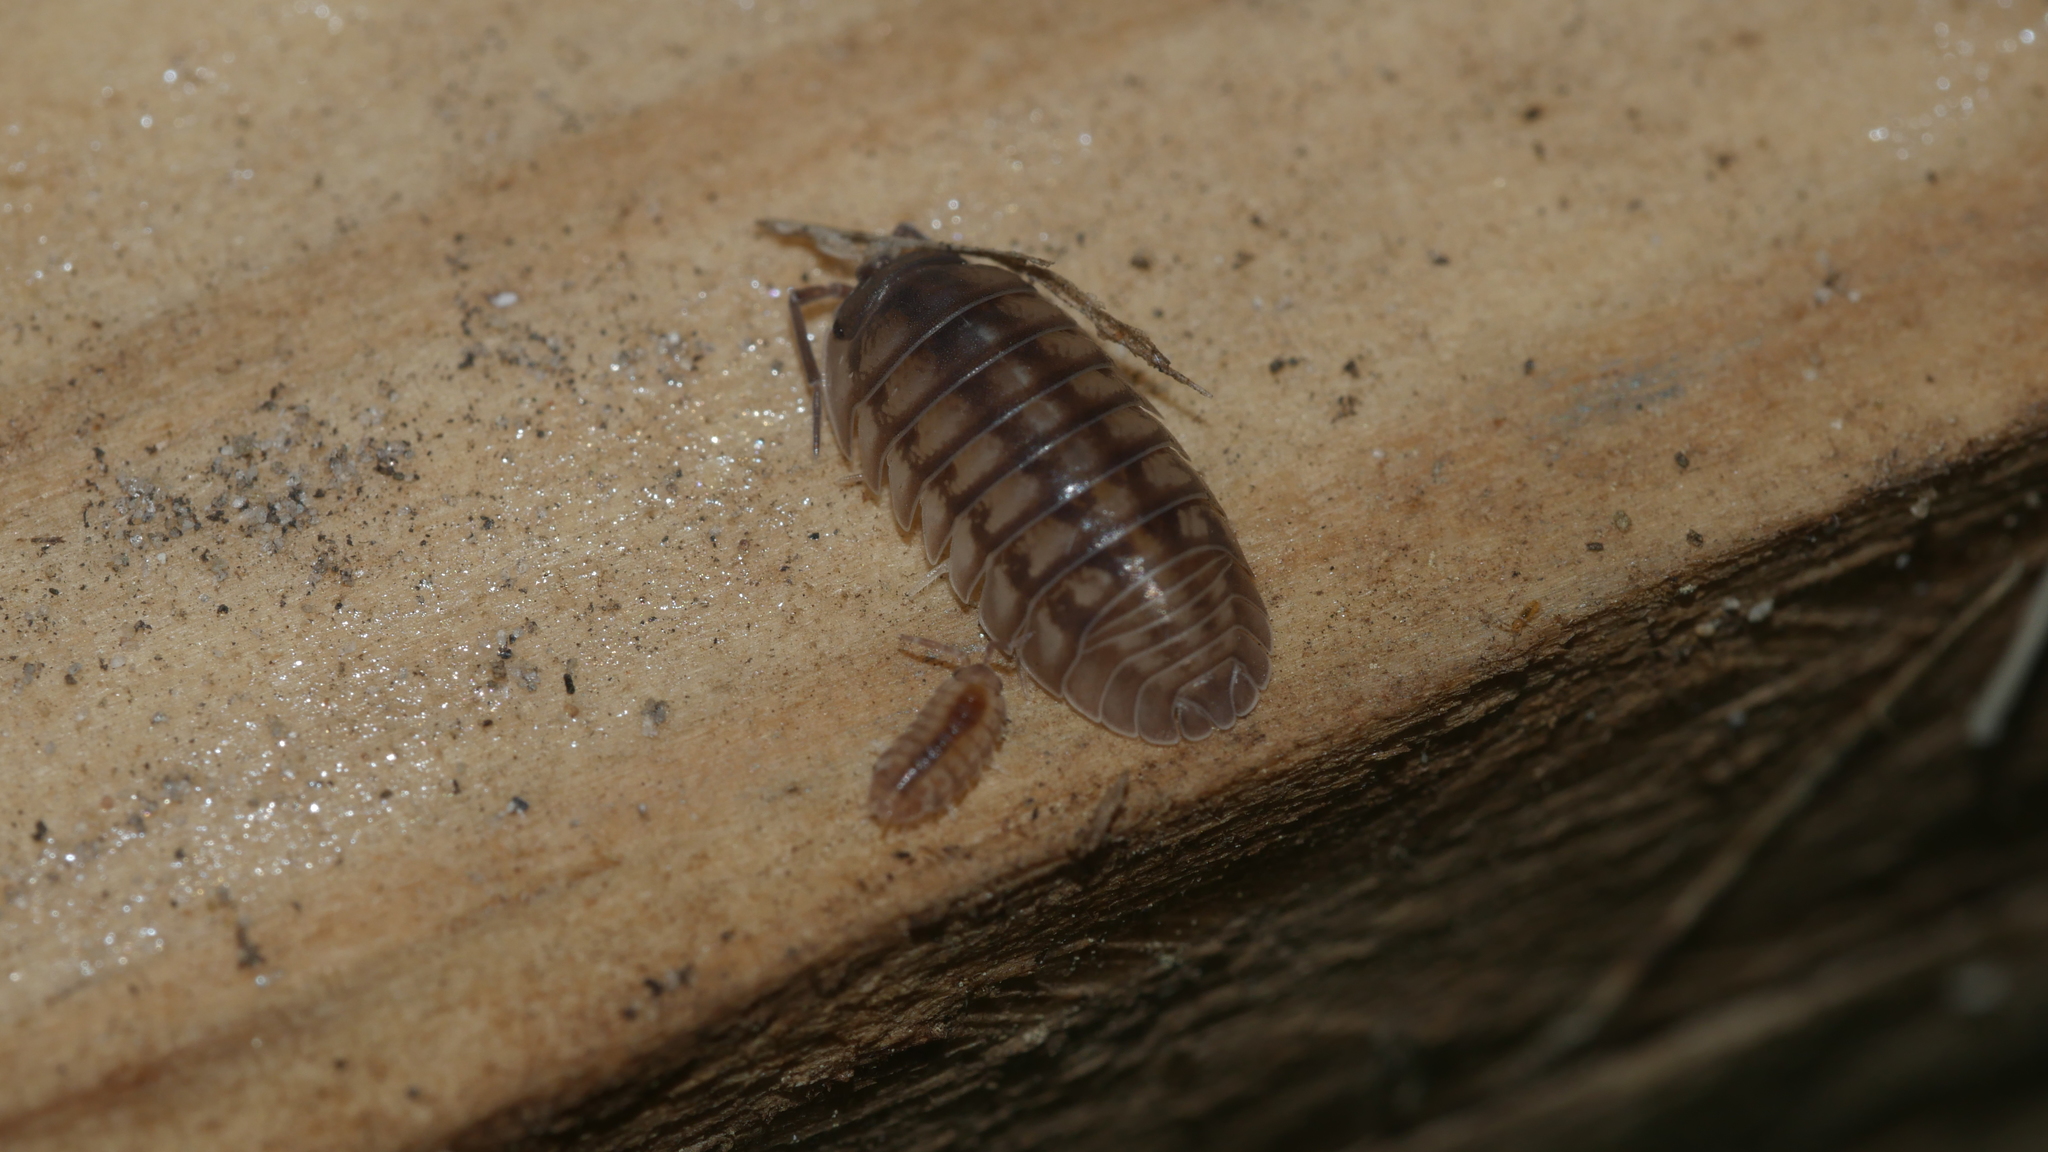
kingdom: Animalia
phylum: Arthropoda
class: Malacostraca
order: Isopoda
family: Armadillidiidae
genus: Armadillidium
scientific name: Armadillidium nasatum
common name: Isopod
